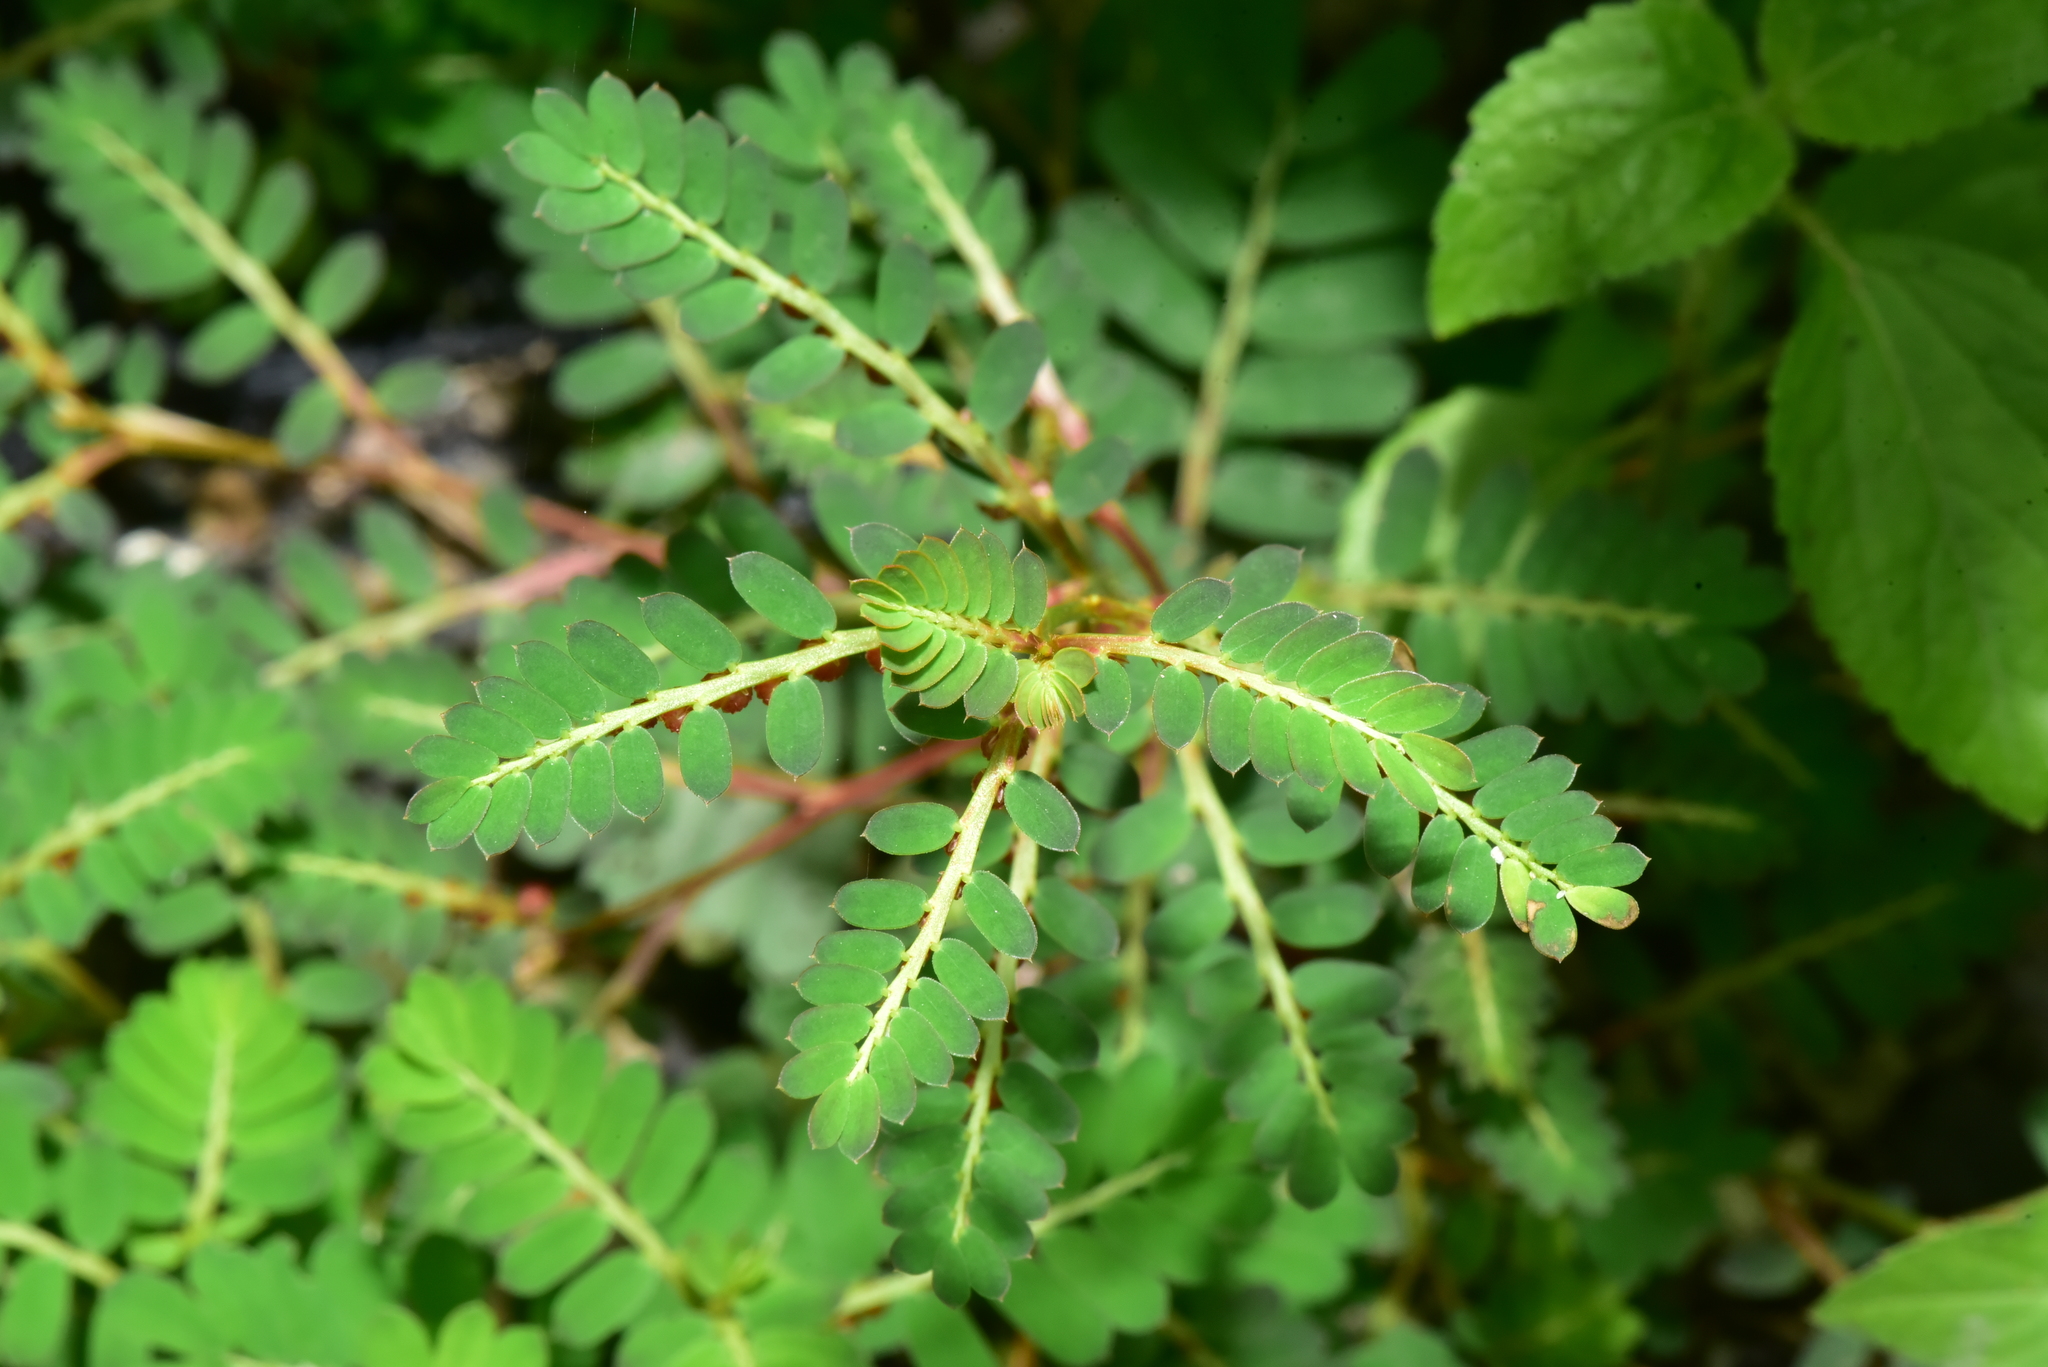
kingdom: Plantae
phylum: Tracheophyta
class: Magnoliopsida
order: Malpighiales
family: Phyllanthaceae
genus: Phyllanthus
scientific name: Phyllanthus urinaria
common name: Chamber bitter
